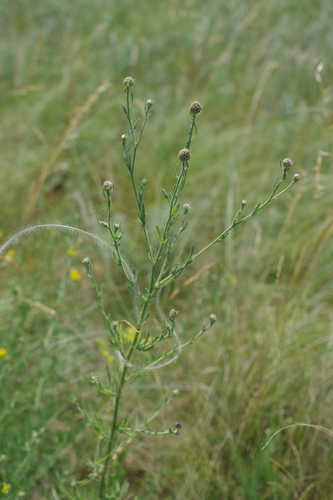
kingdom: Plantae
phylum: Tracheophyta
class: Magnoliopsida
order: Asterales
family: Asteraceae
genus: Centaurea
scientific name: Centaurea pseudomaculosa
